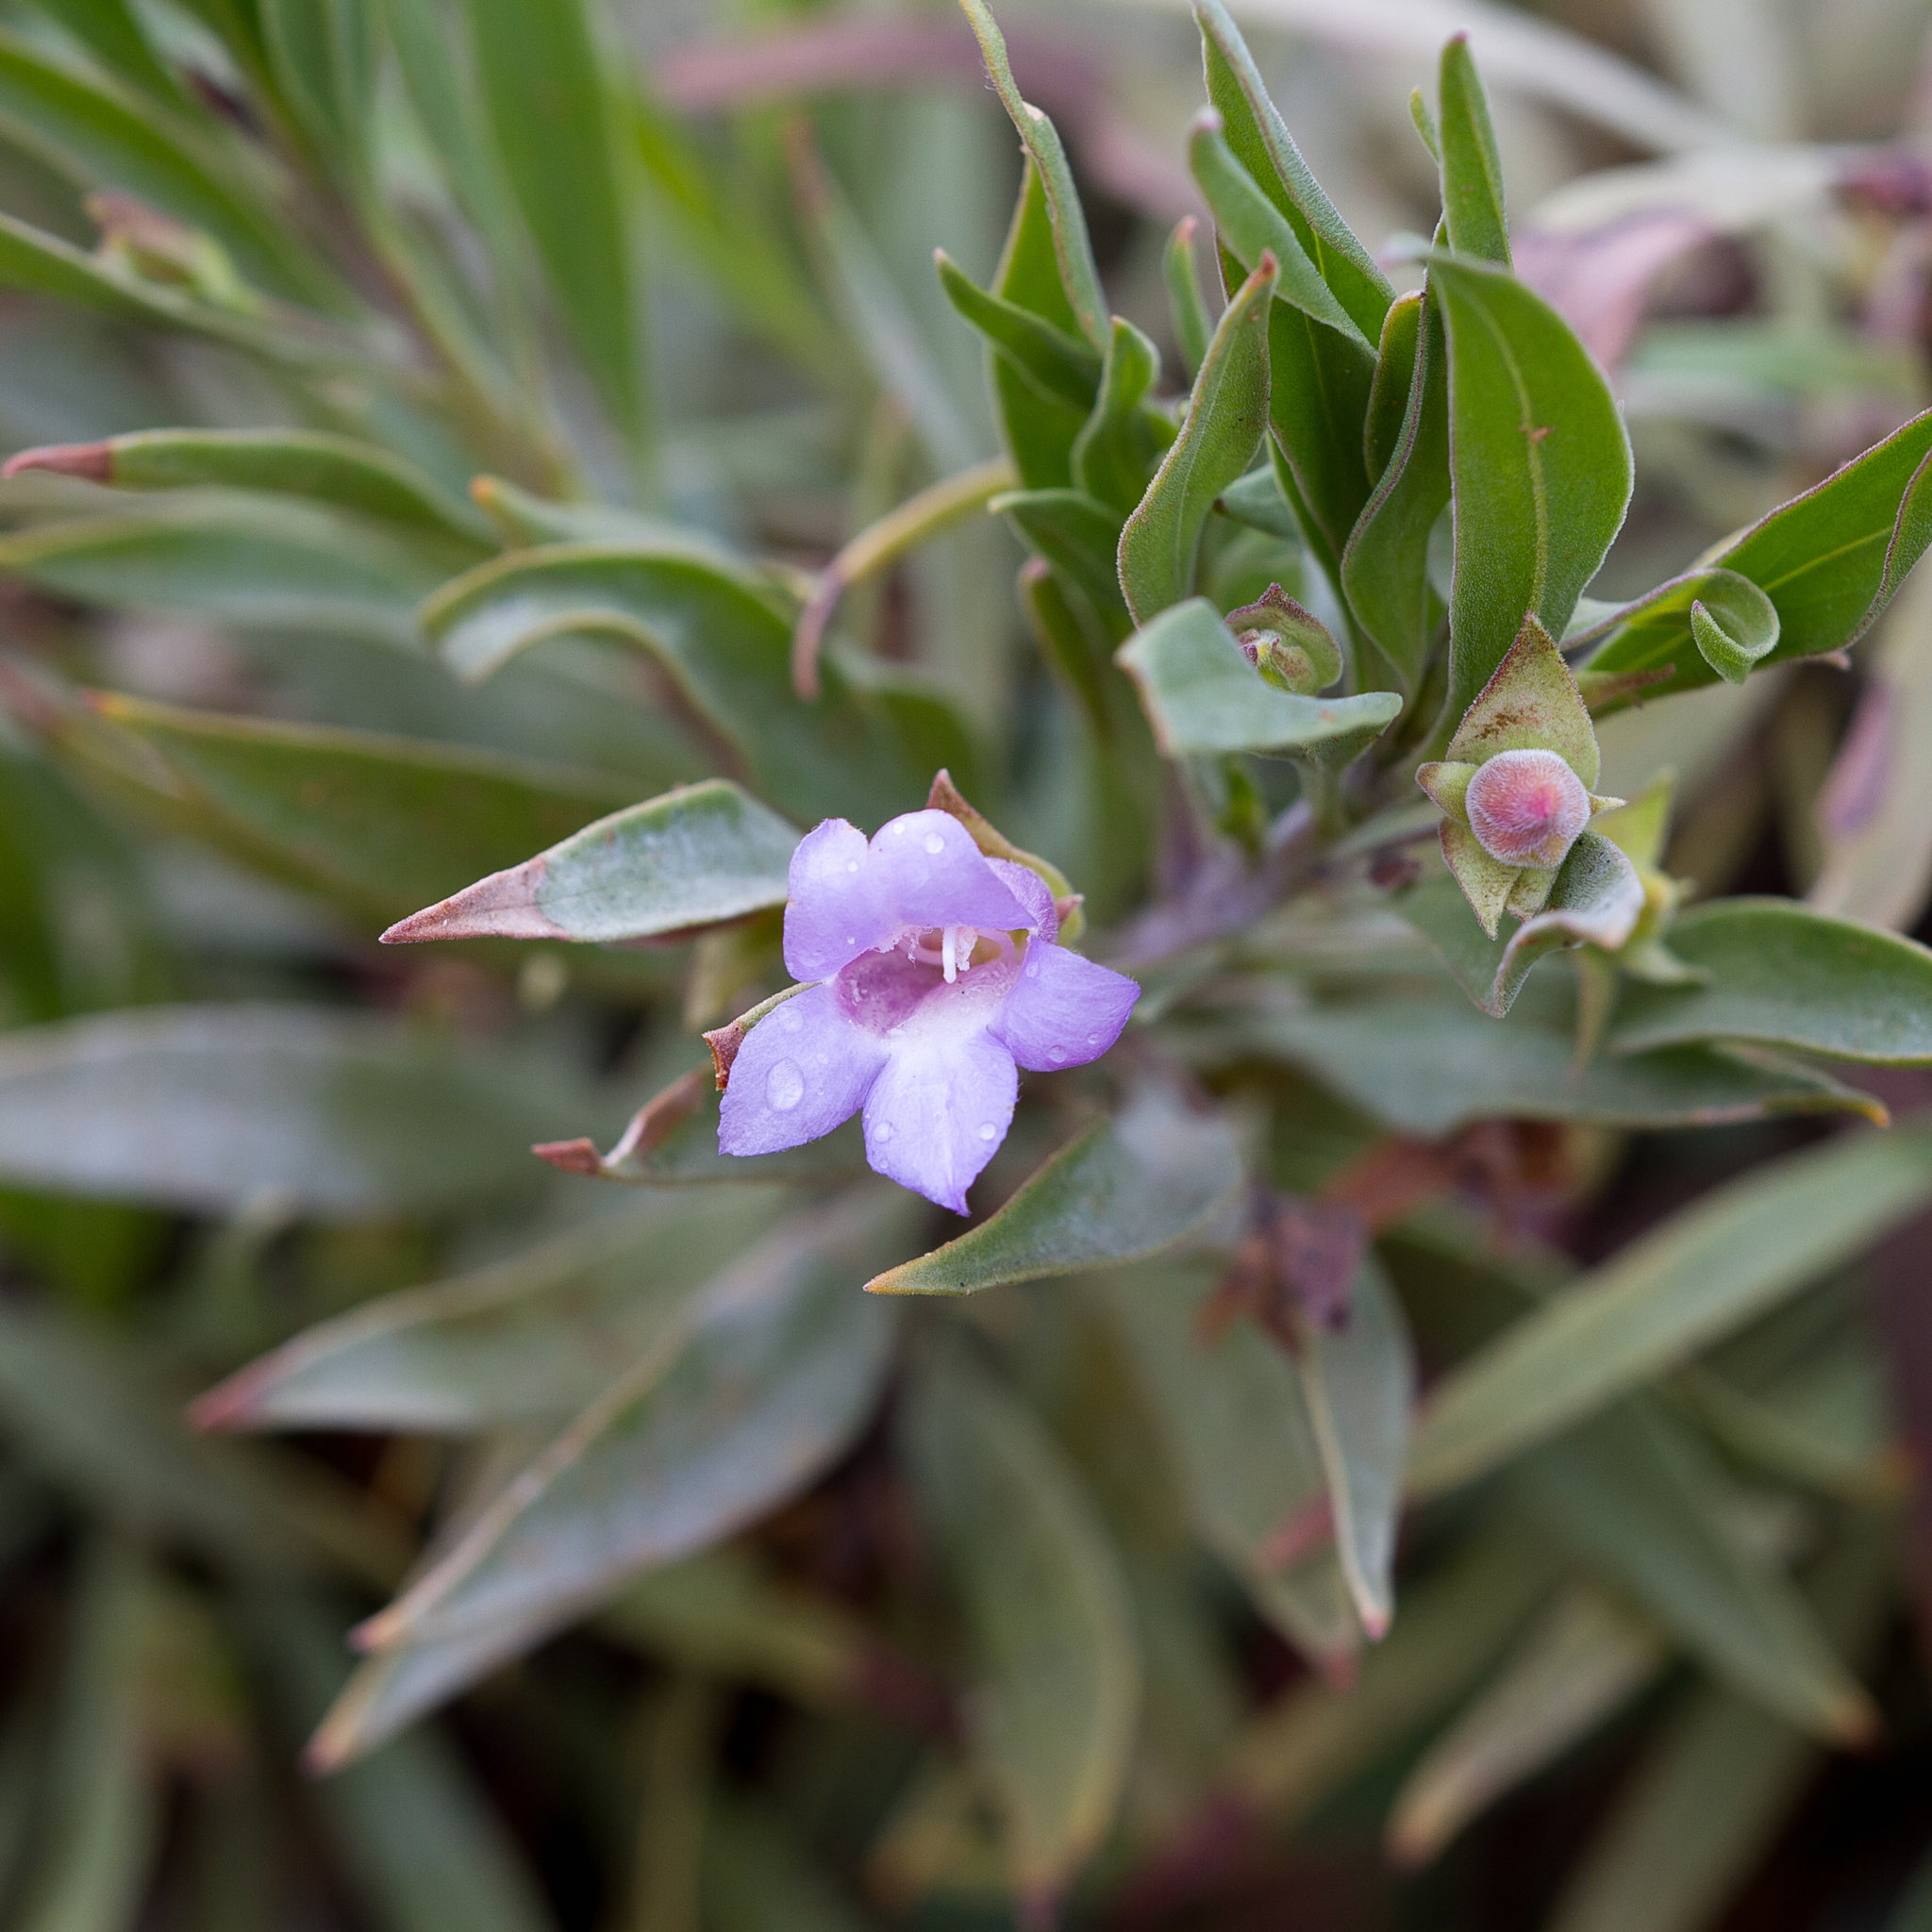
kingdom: Plantae
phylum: Tracheophyta
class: Magnoliopsida
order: Lamiales
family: Scrophulariaceae
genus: Eremophila
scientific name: Eremophila freelingii
